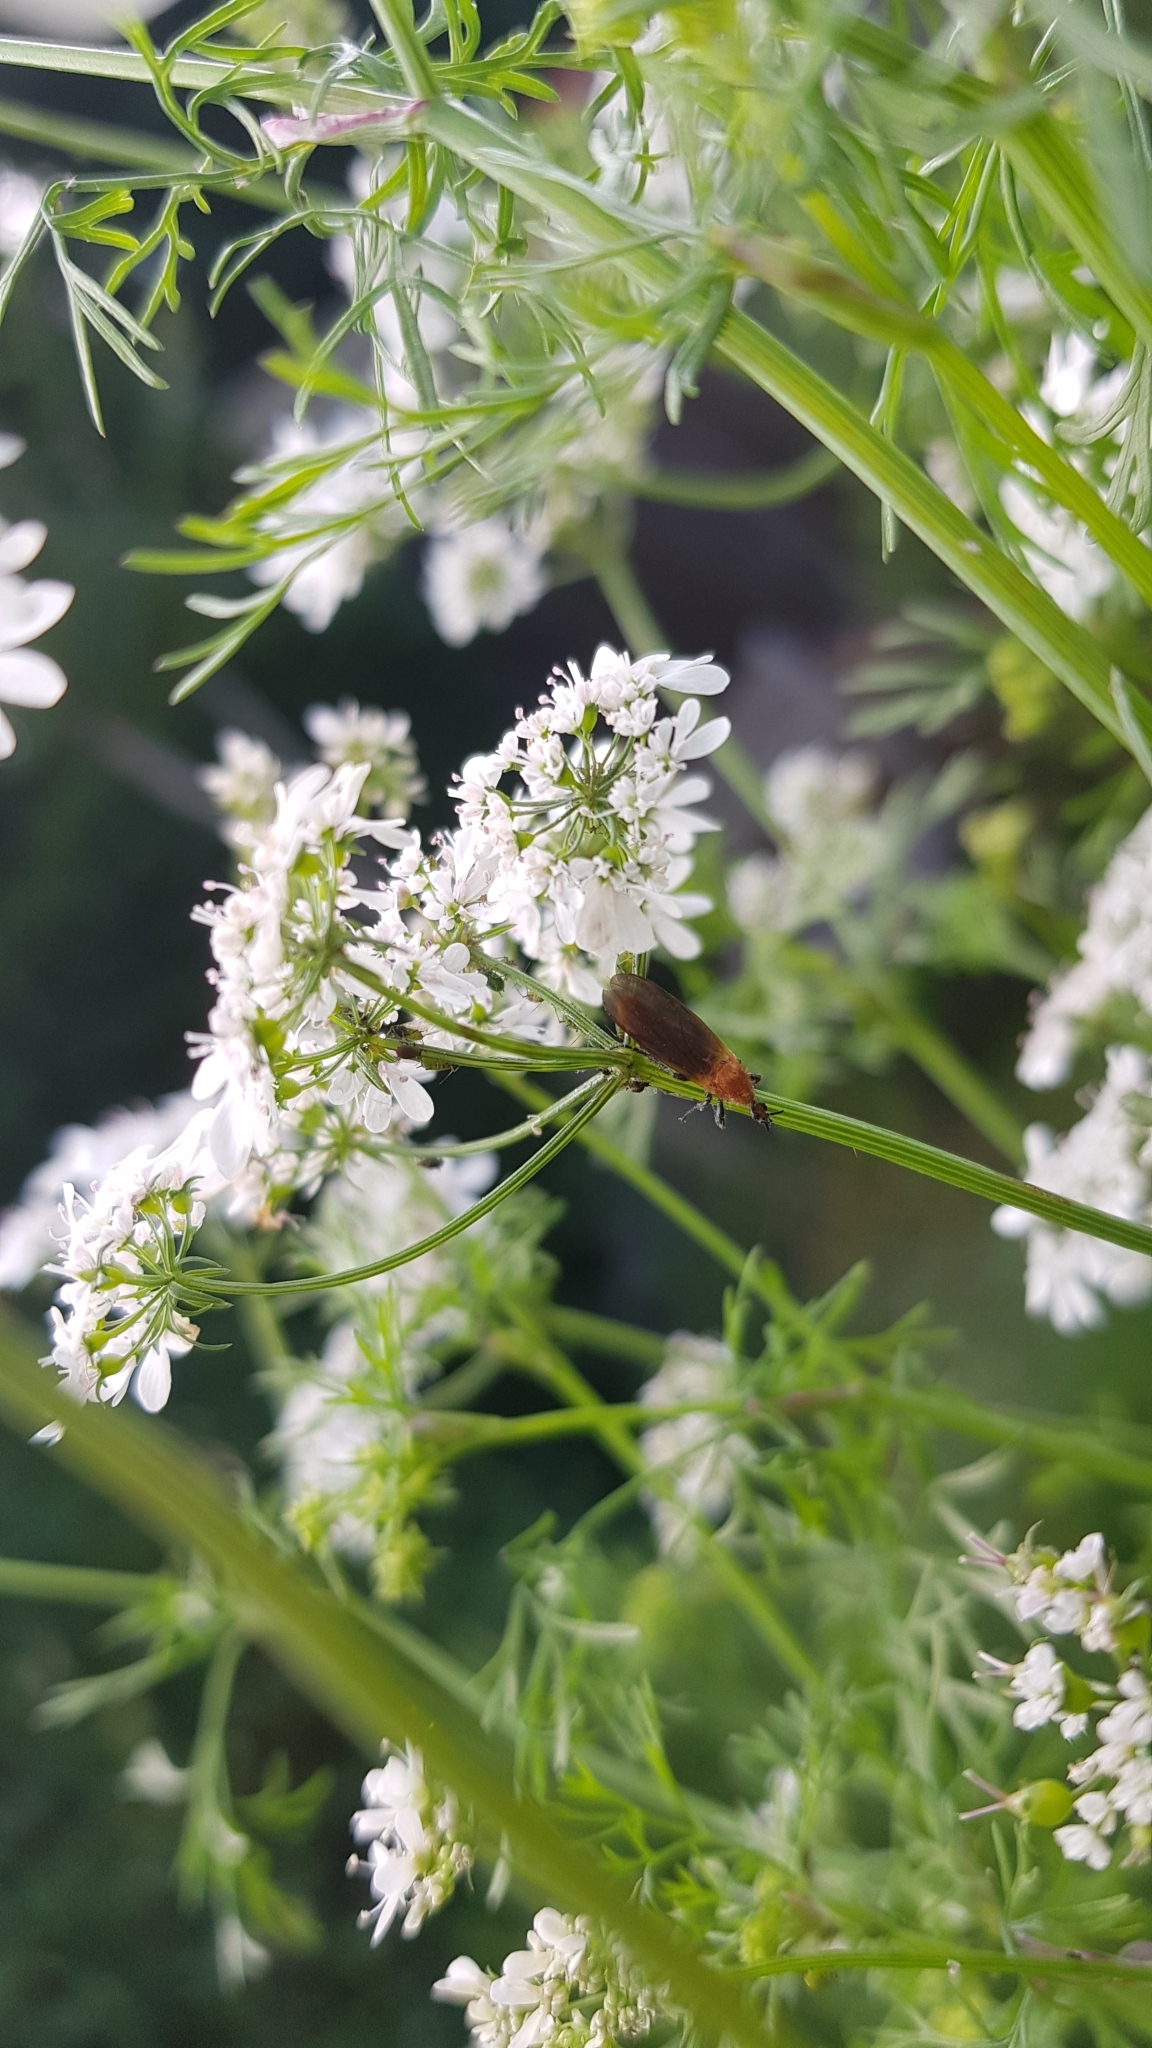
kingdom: Animalia
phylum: Arthropoda
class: Insecta
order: Diptera
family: Bibionidae
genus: Bibio
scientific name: Bibio imitator
